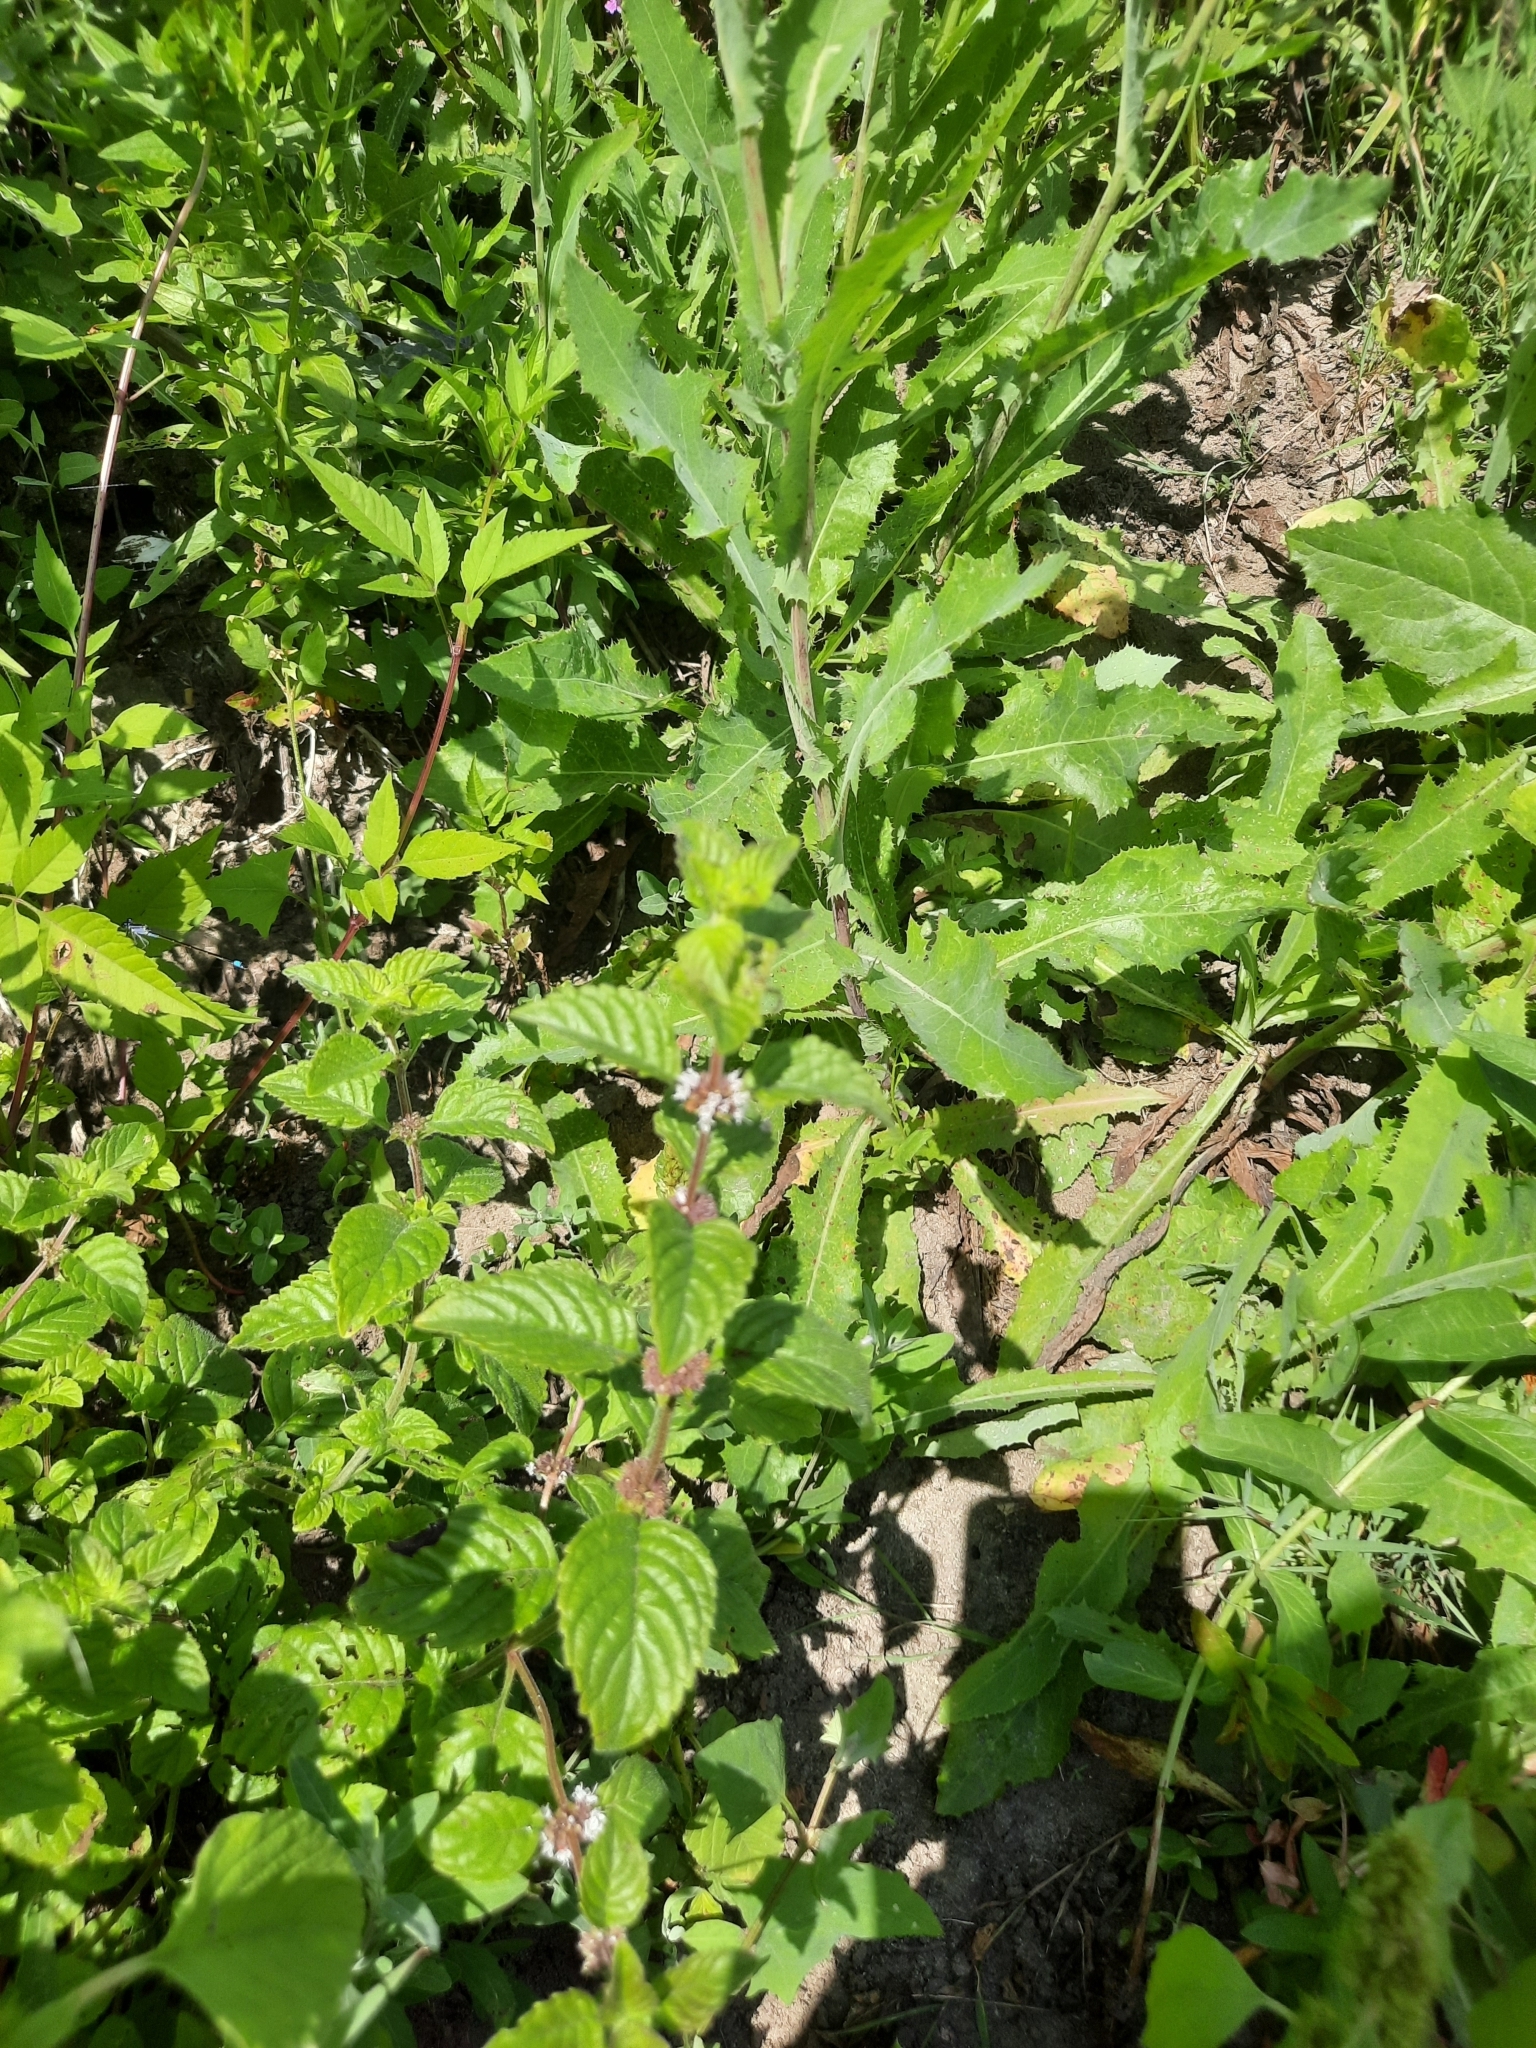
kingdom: Plantae
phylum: Tracheophyta
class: Magnoliopsida
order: Lamiales
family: Lamiaceae
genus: Mentha
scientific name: Mentha arvensis
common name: Corn mint
